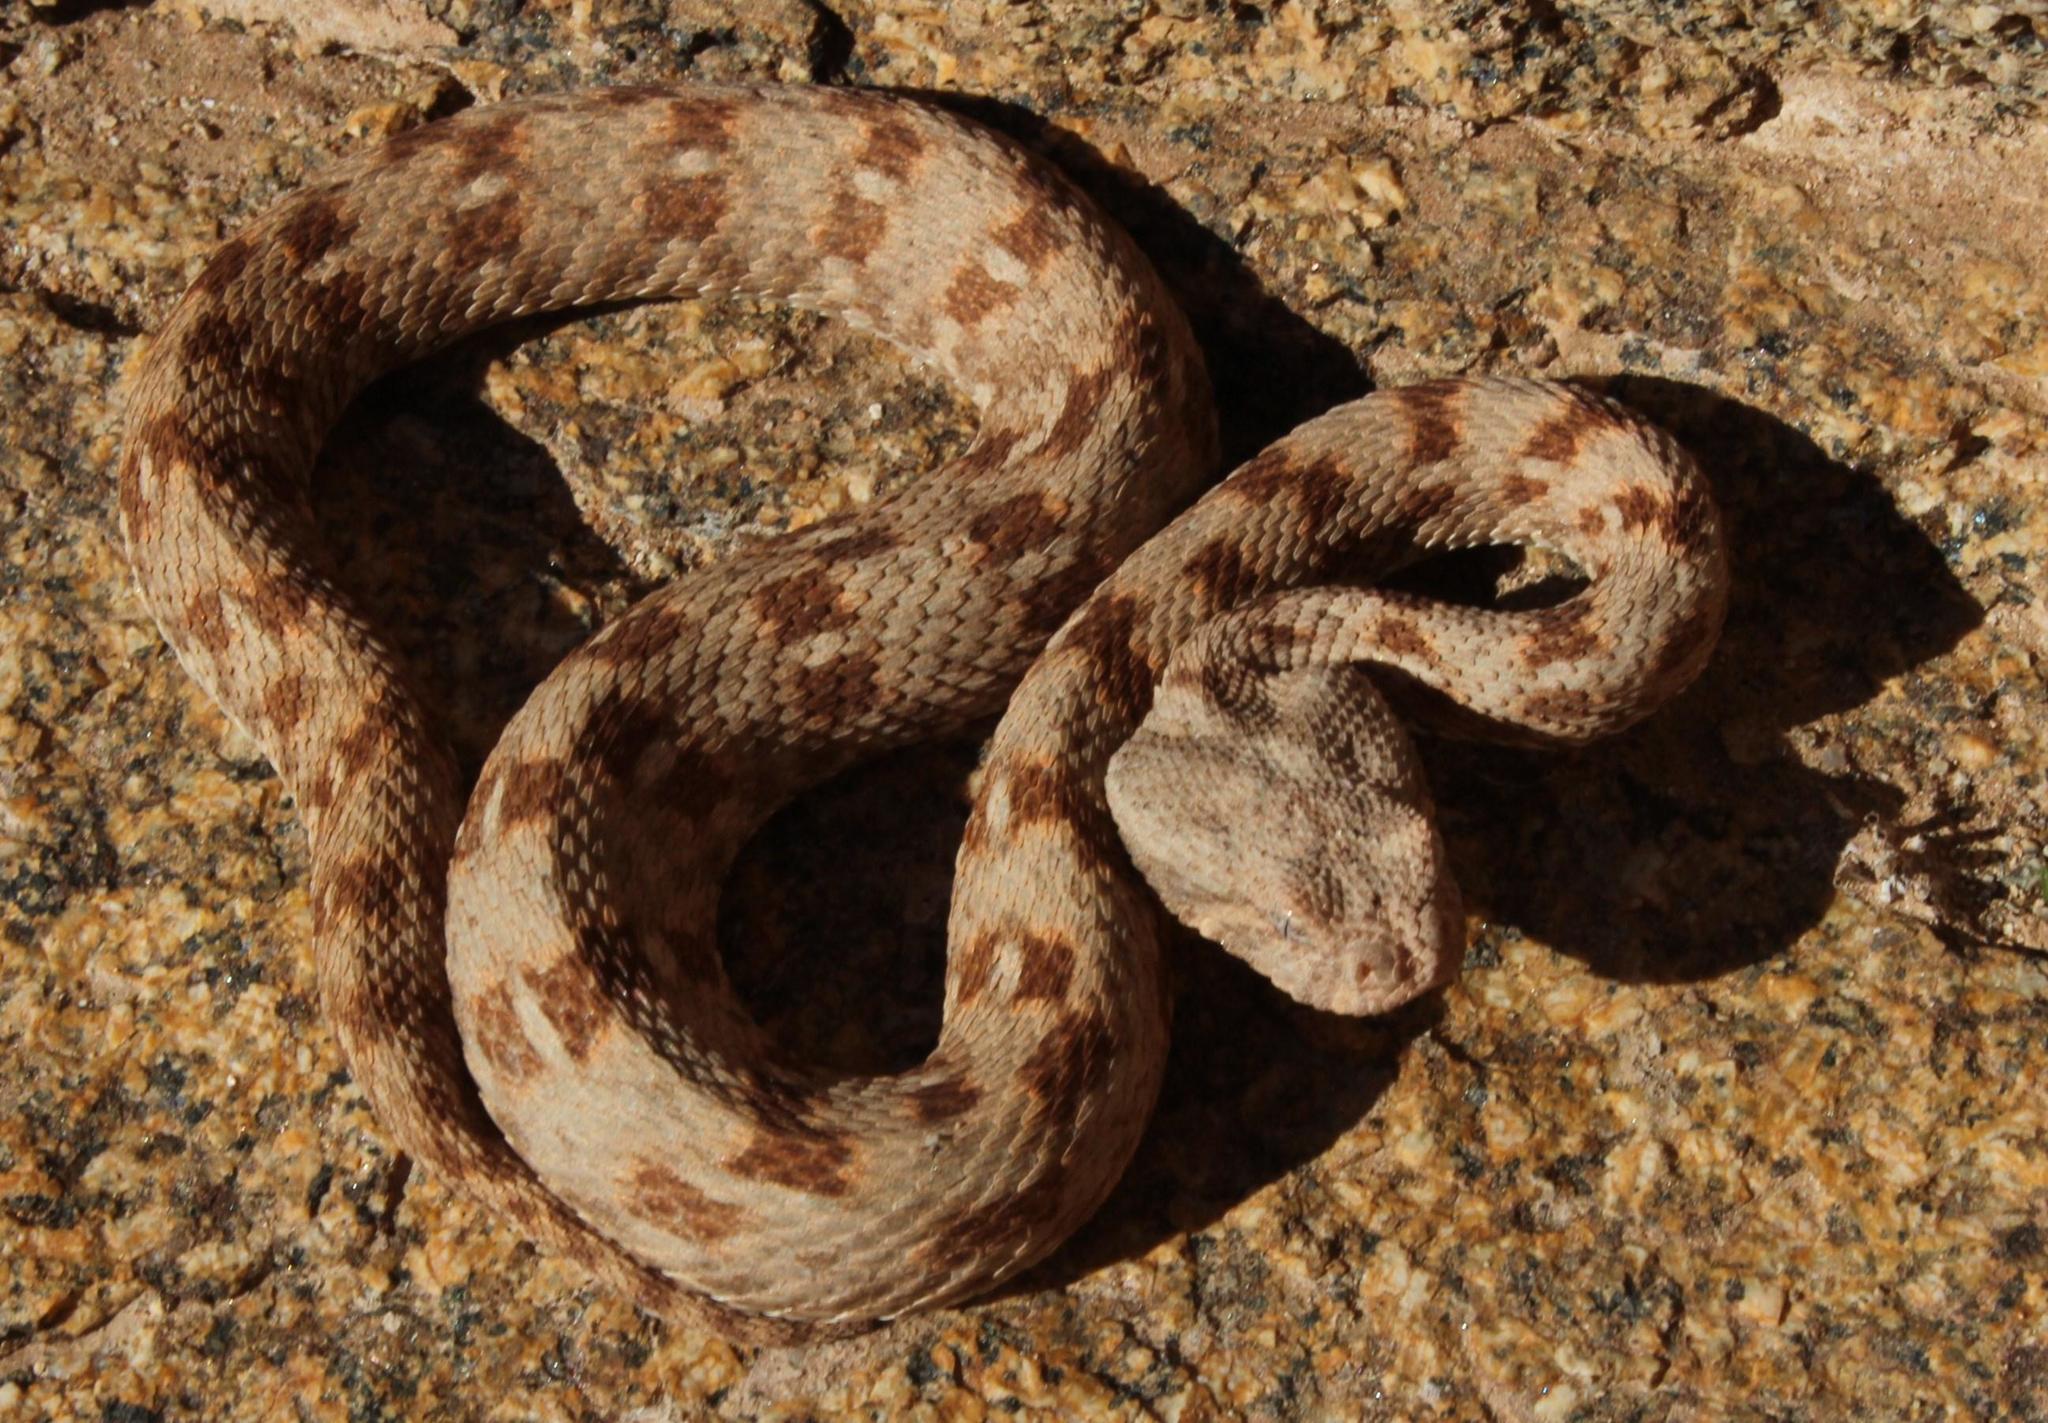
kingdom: Animalia
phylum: Chordata
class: Squamata
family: Viperidae
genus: Bitis
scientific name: Bitis xeropaga
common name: Desert mountain adder
